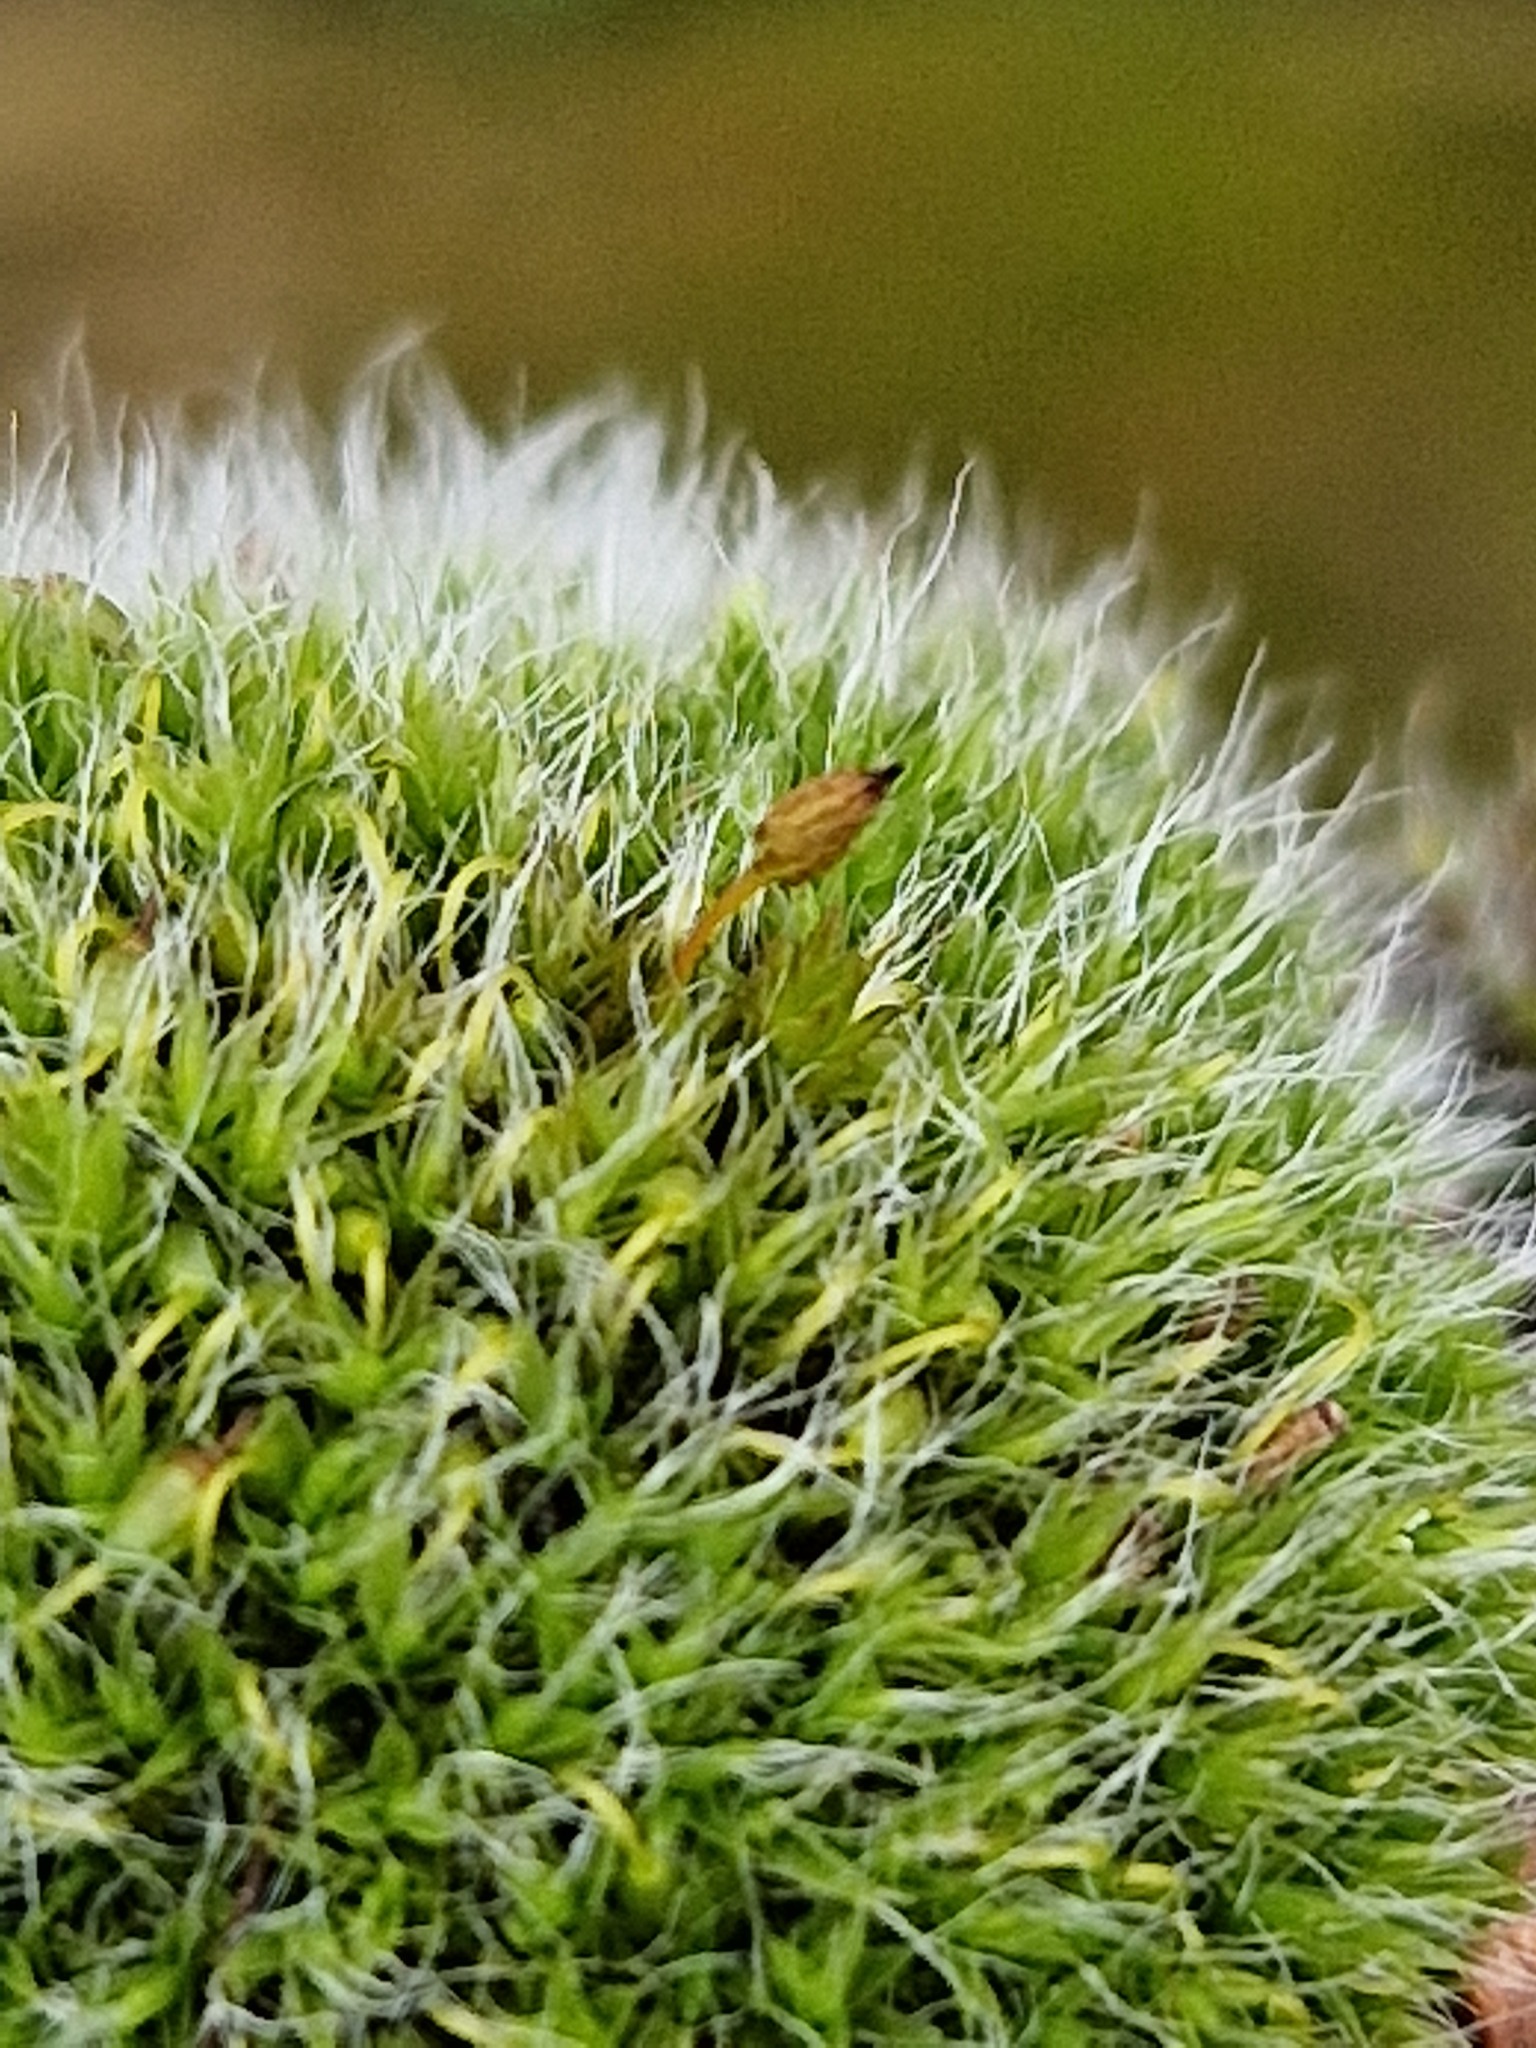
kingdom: Plantae
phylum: Bryophyta
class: Bryopsida
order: Grimmiales
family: Grimmiaceae
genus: Grimmia
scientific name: Grimmia pulvinata
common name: Grey-cushioned grimmia
